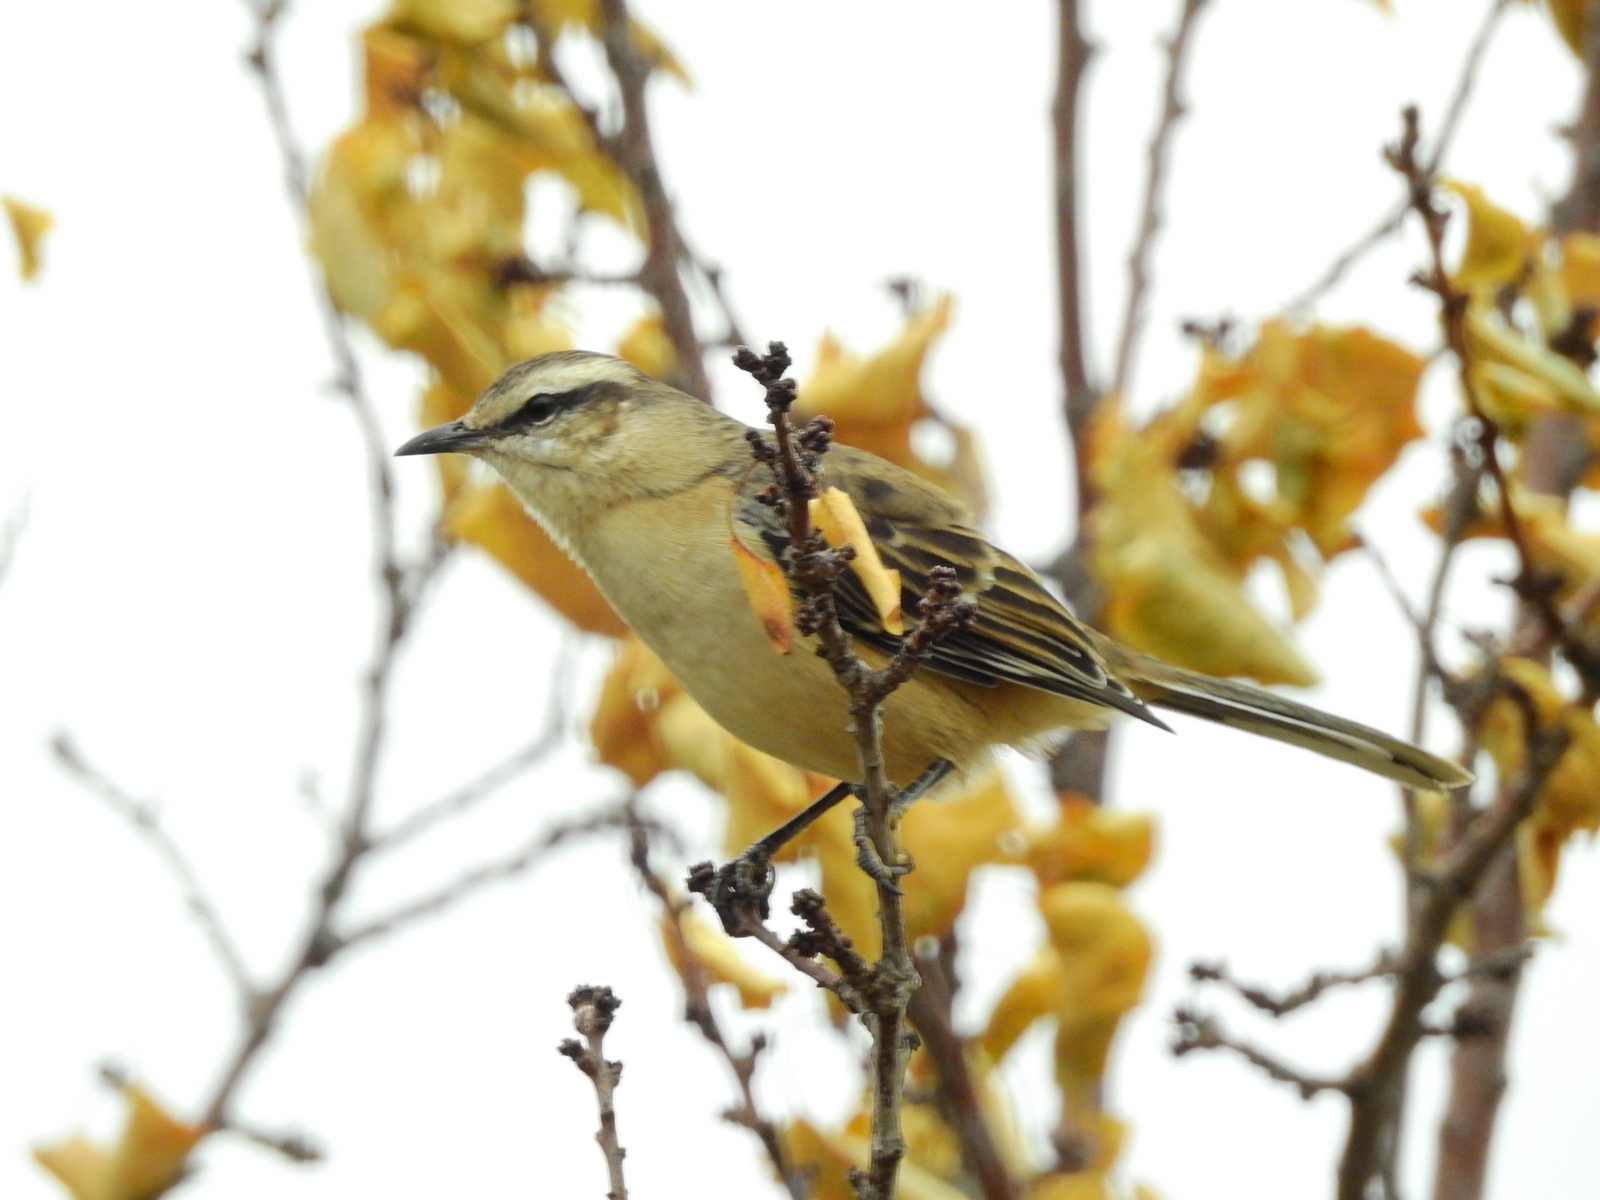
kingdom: Animalia
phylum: Chordata
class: Aves
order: Passeriformes
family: Mimidae
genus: Mimus
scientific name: Mimus saturninus
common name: Chalk-browed mockingbird
